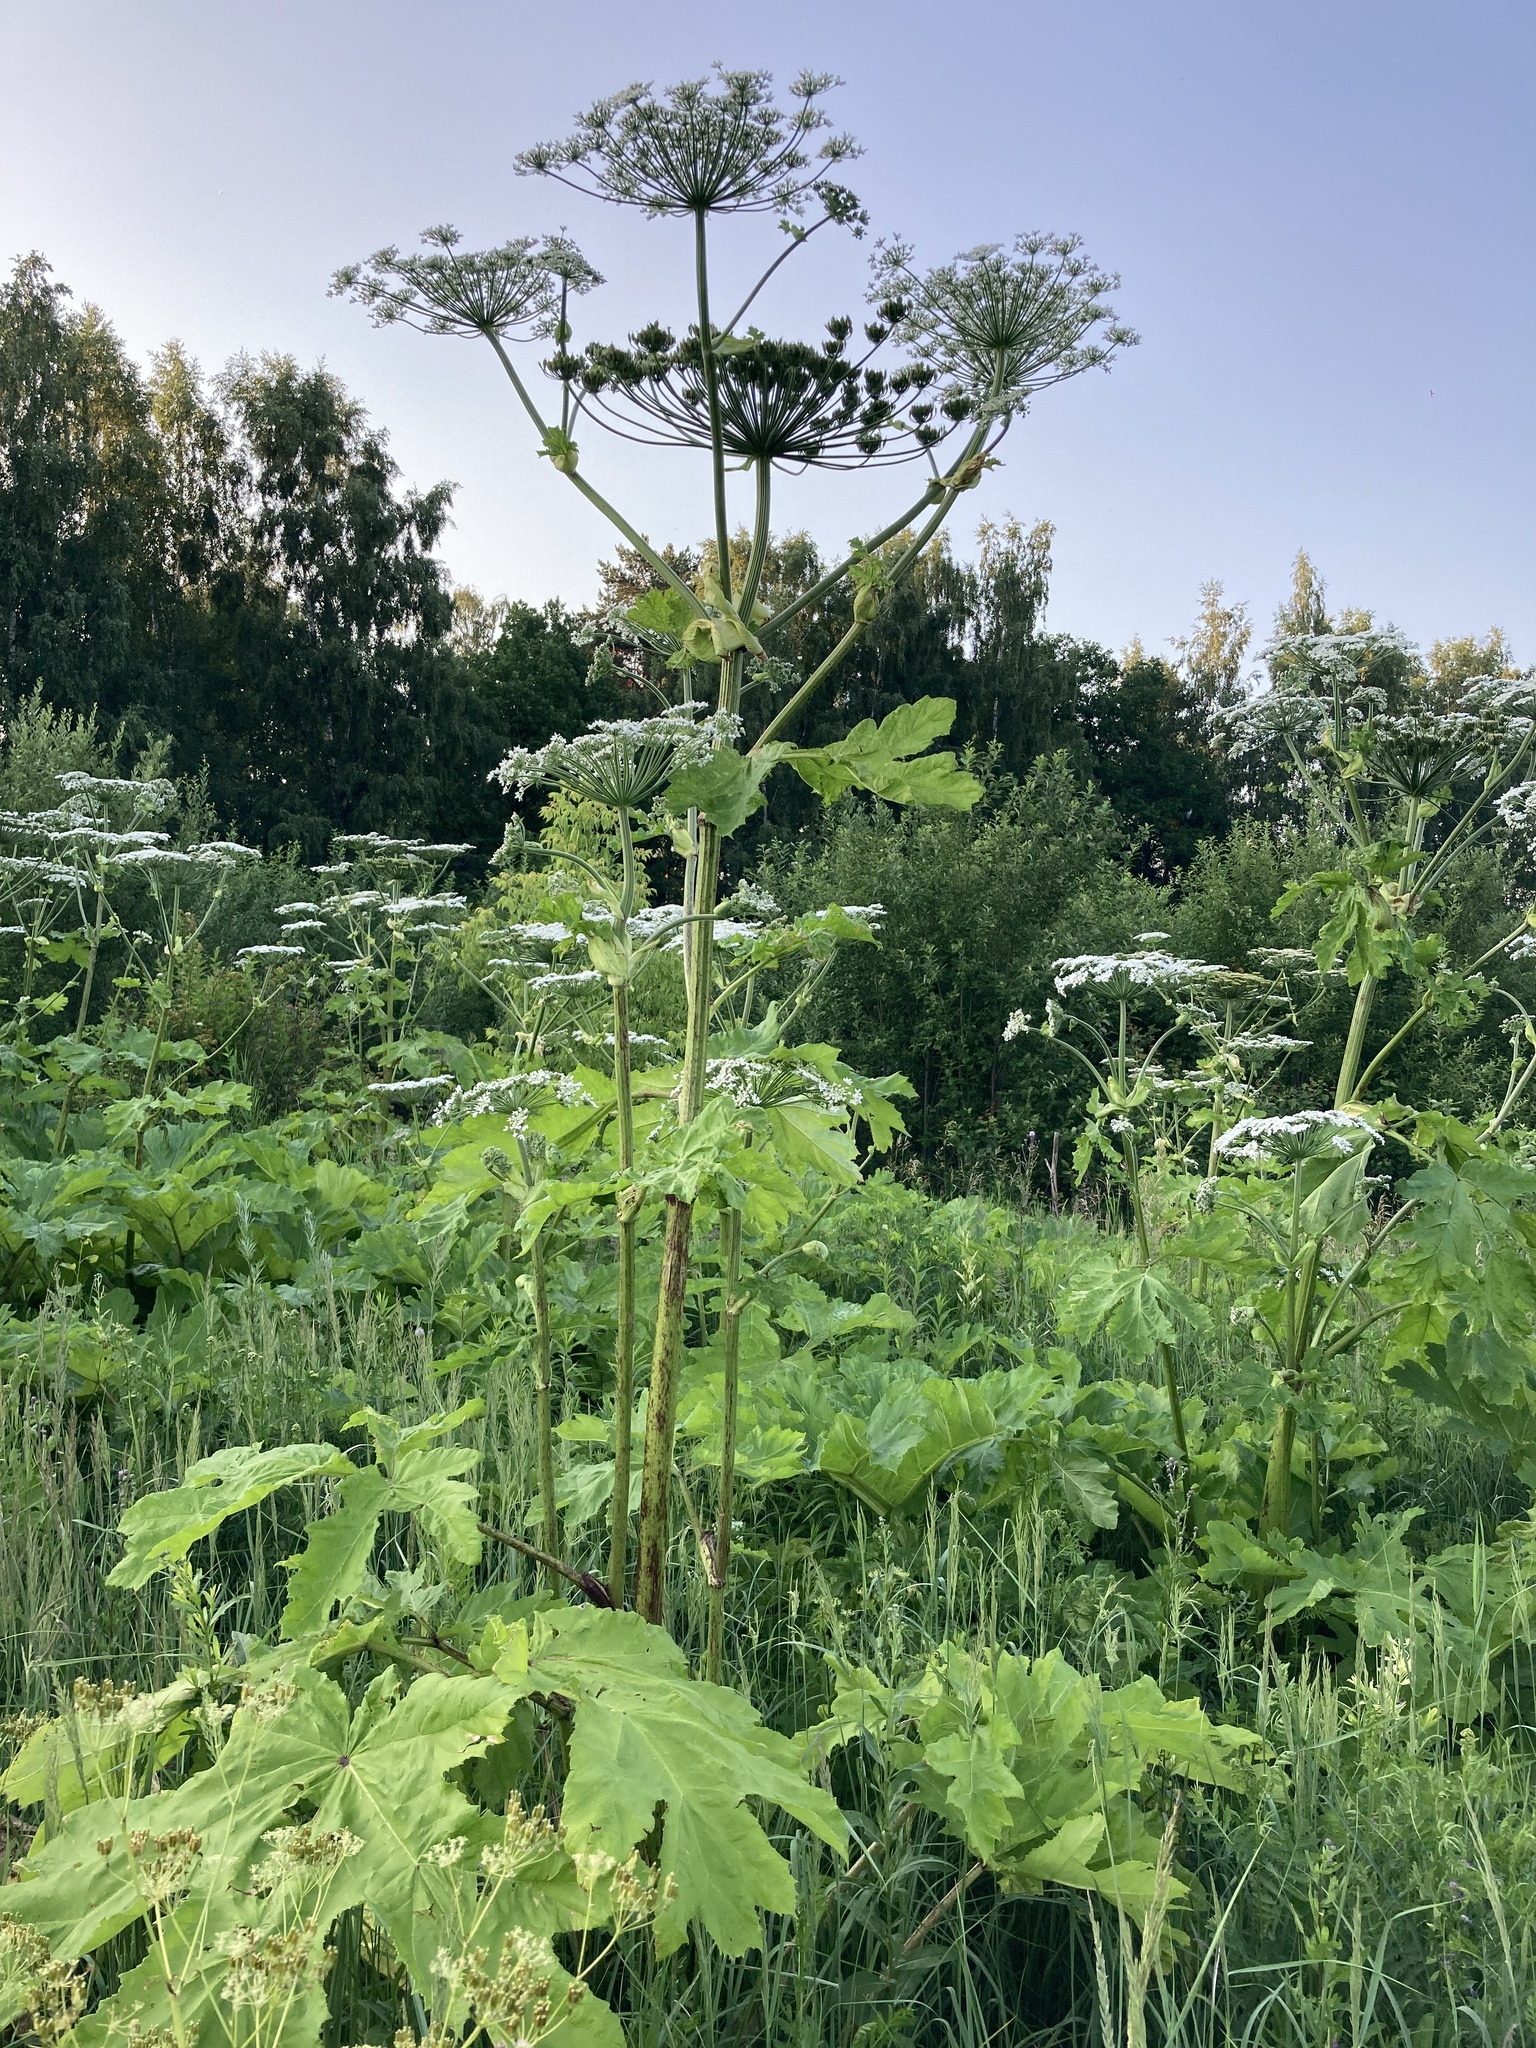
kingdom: Plantae
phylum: Tracheophyta
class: Magnoliopsida
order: Apiales
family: Apiaceae
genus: Heracleum
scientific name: Heracleum sosnowskyi
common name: Sosnowsky's hogweed
